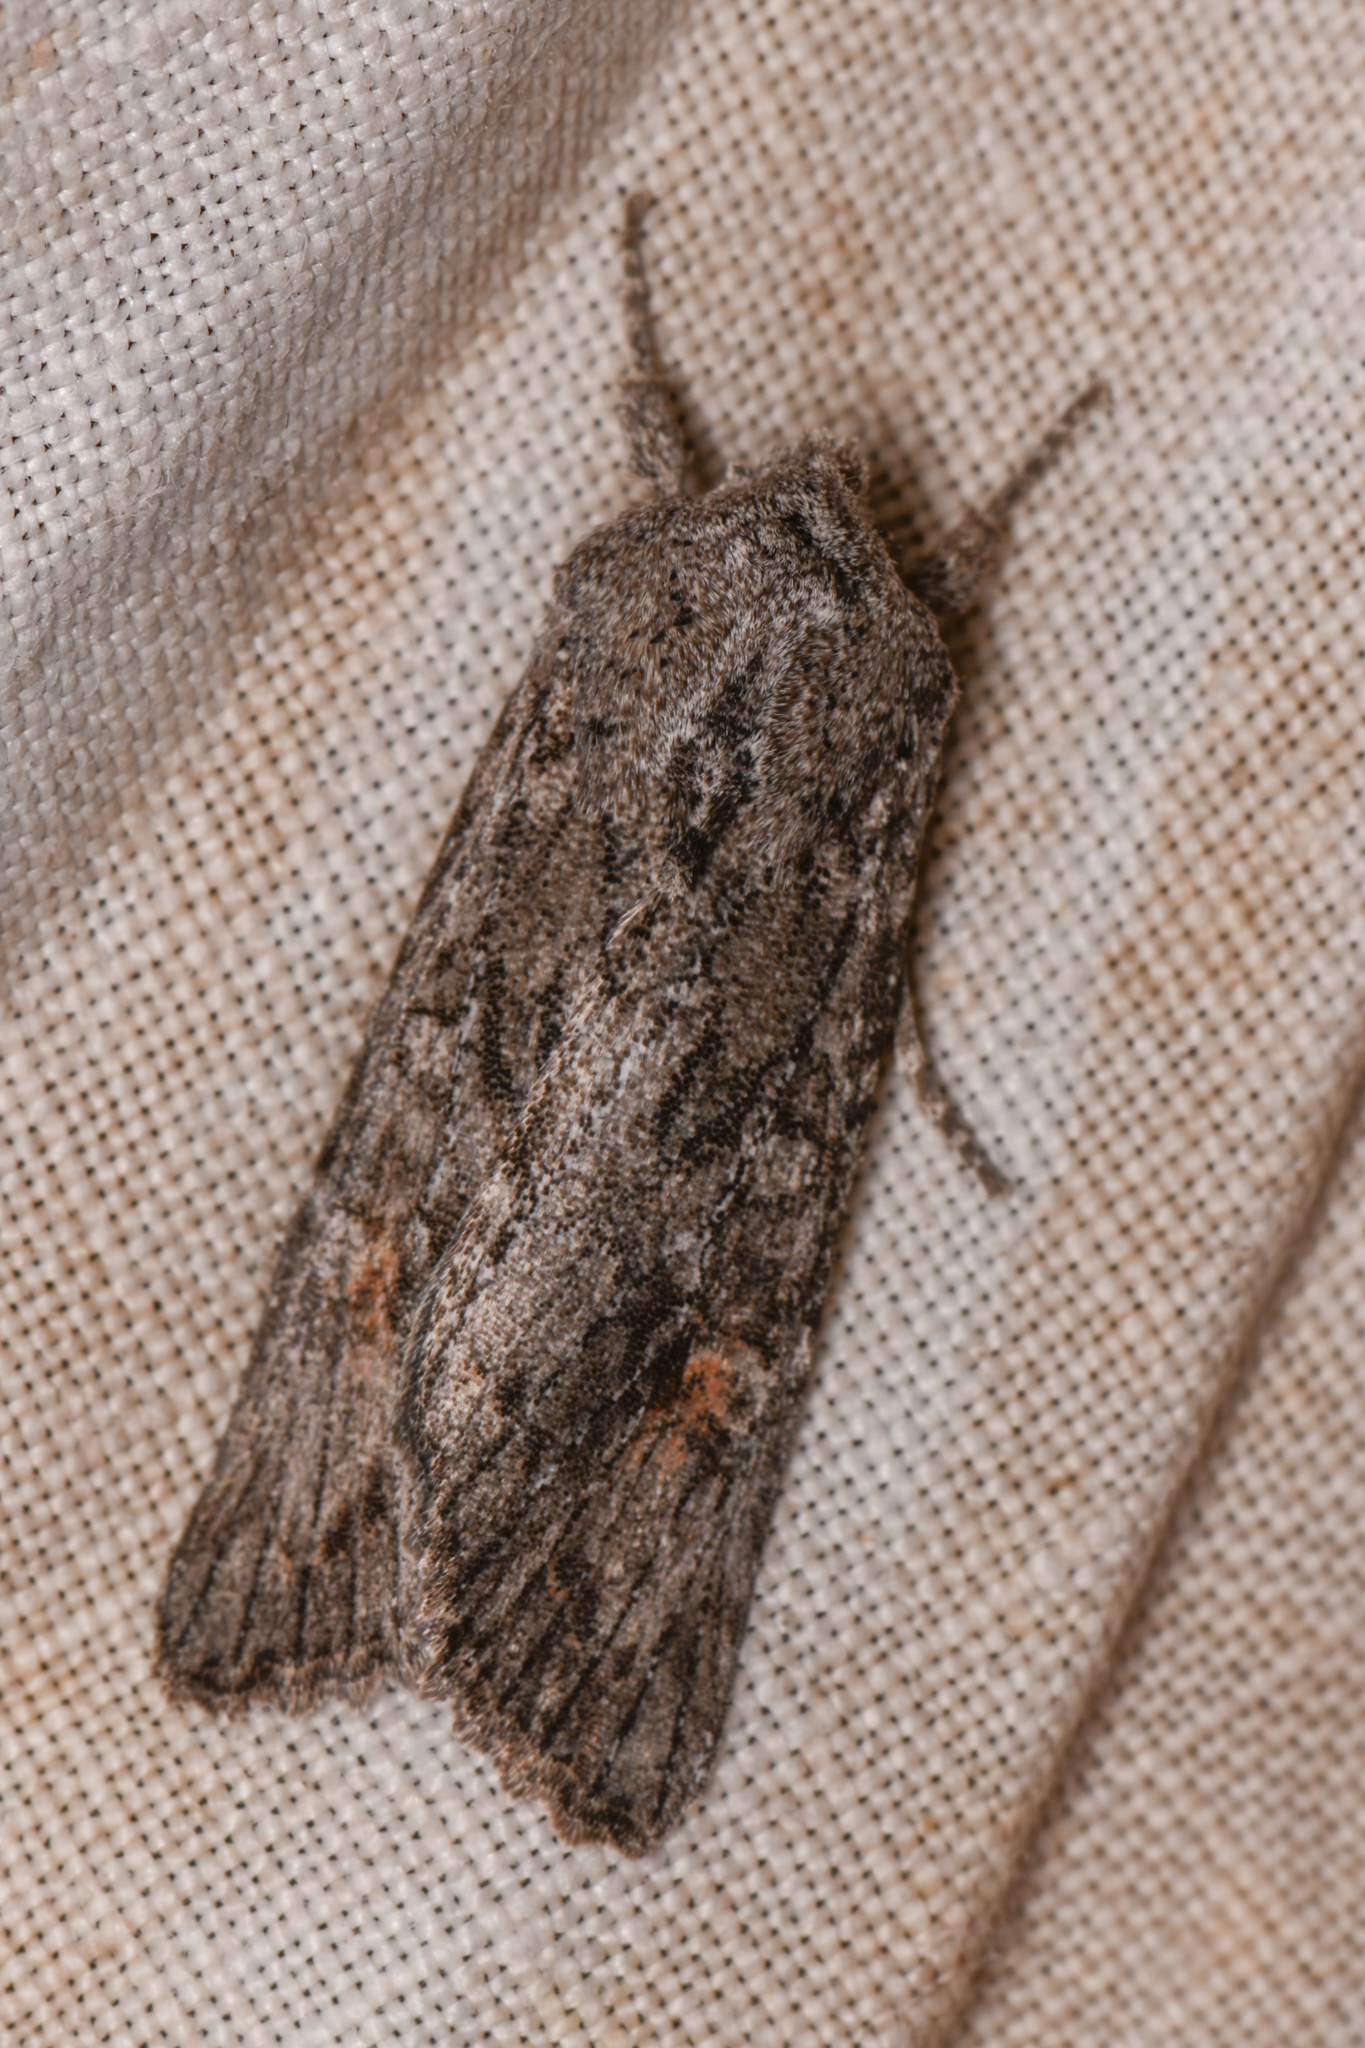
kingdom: Animalia
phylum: Arthropoda
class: Insecta
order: Lepidoptera
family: Noctuidae
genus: Egira
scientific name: Egira curialis
